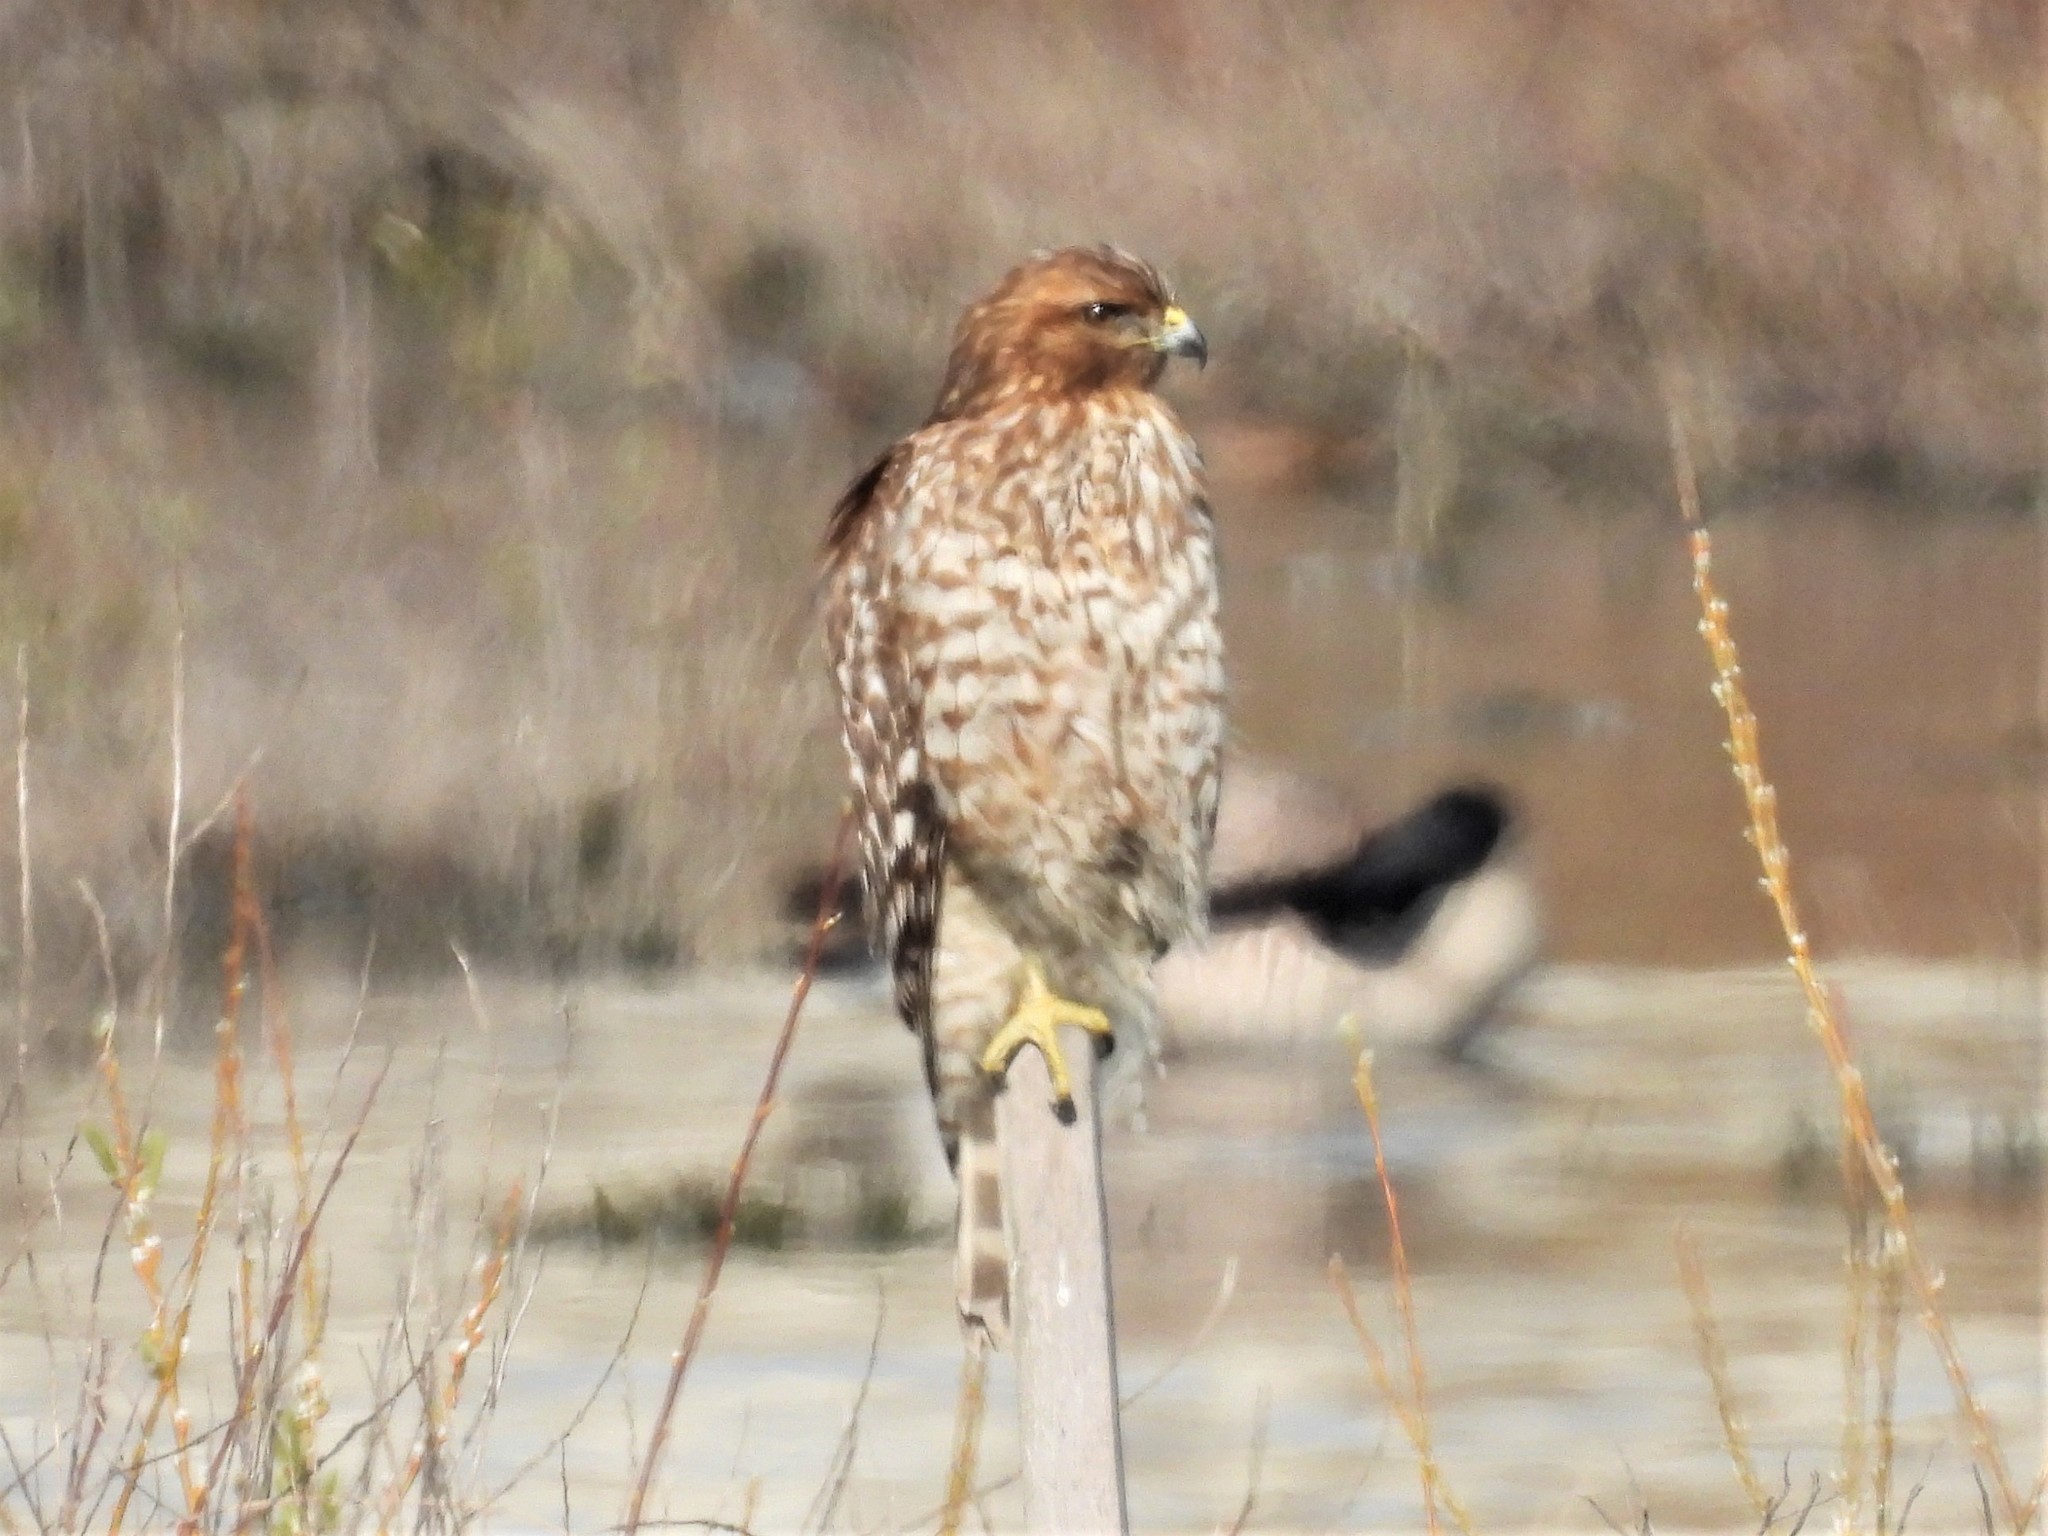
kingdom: Animalia
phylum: Chordata
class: Aves
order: Accipitriformes
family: Accipitridae
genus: Buteo
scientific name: Buteo lineatus
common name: Red-shouldered hawk
